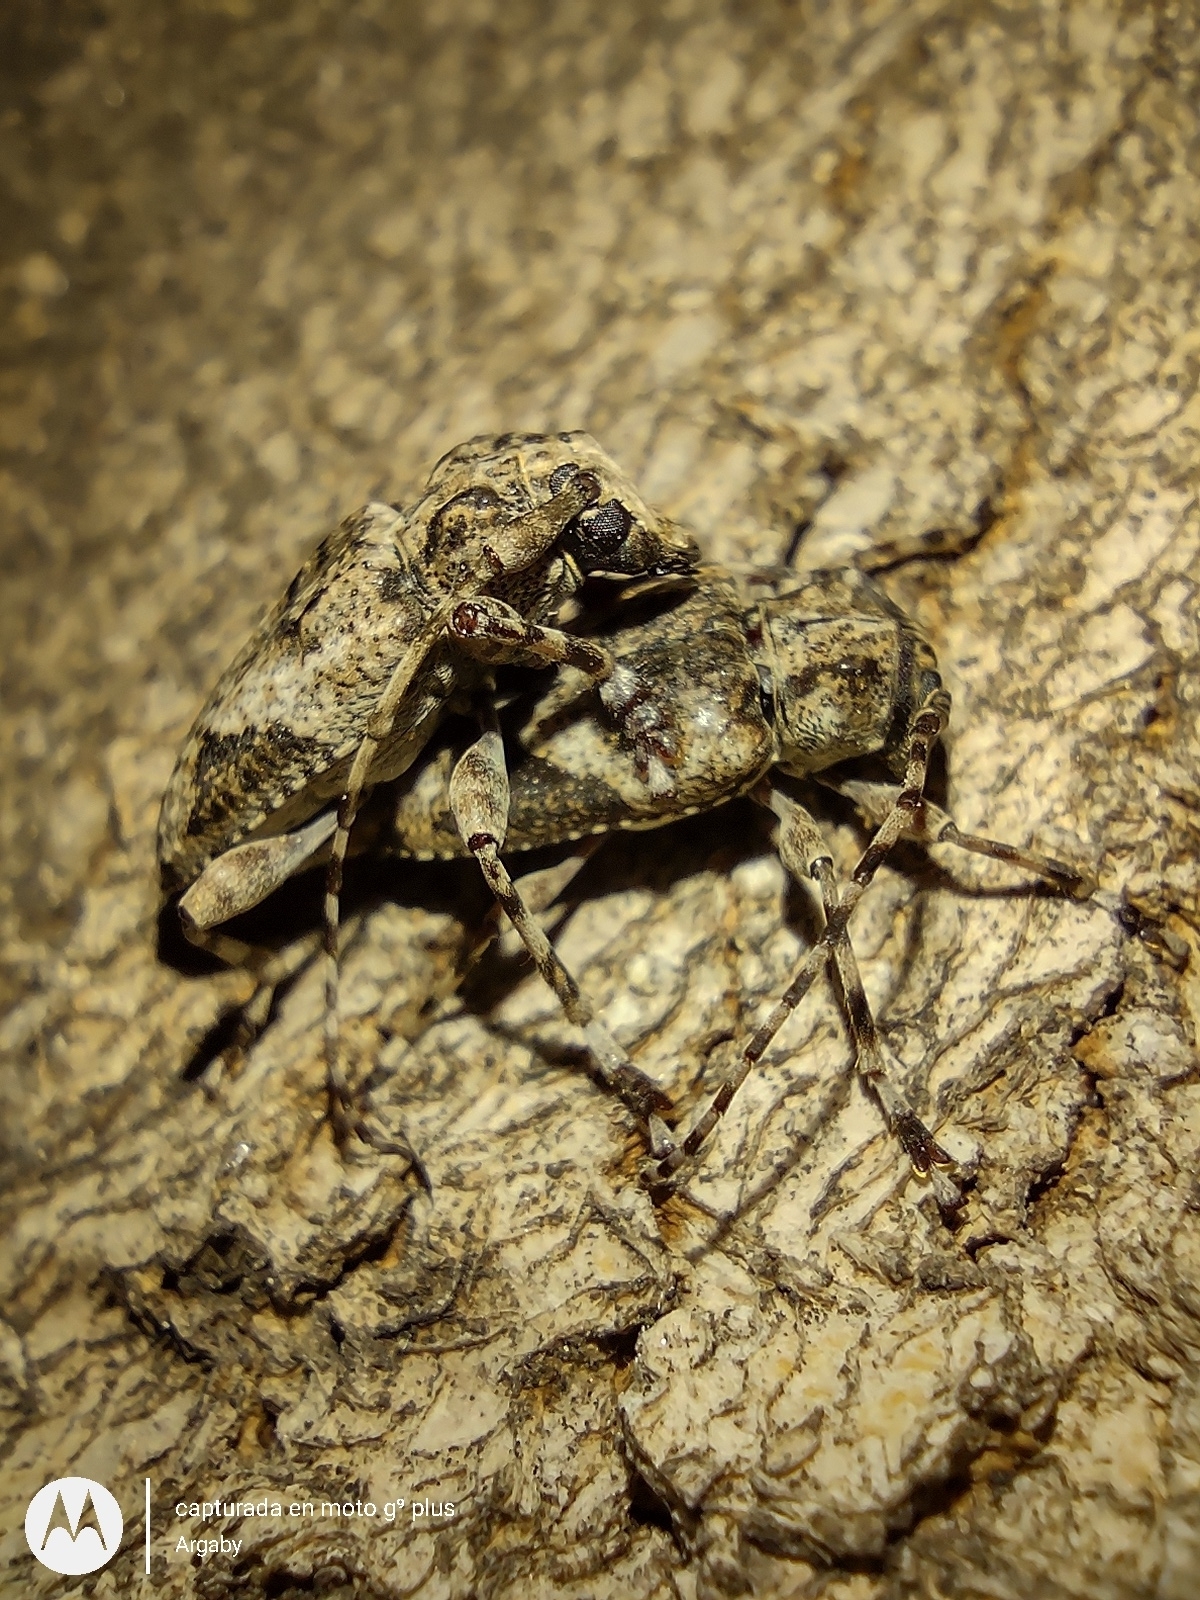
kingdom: Animalia
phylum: Arthropoda
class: Insecta
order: Coleoptera
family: Cerambycidae
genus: Psapharochrus
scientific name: Psapharochrus jaspideus
